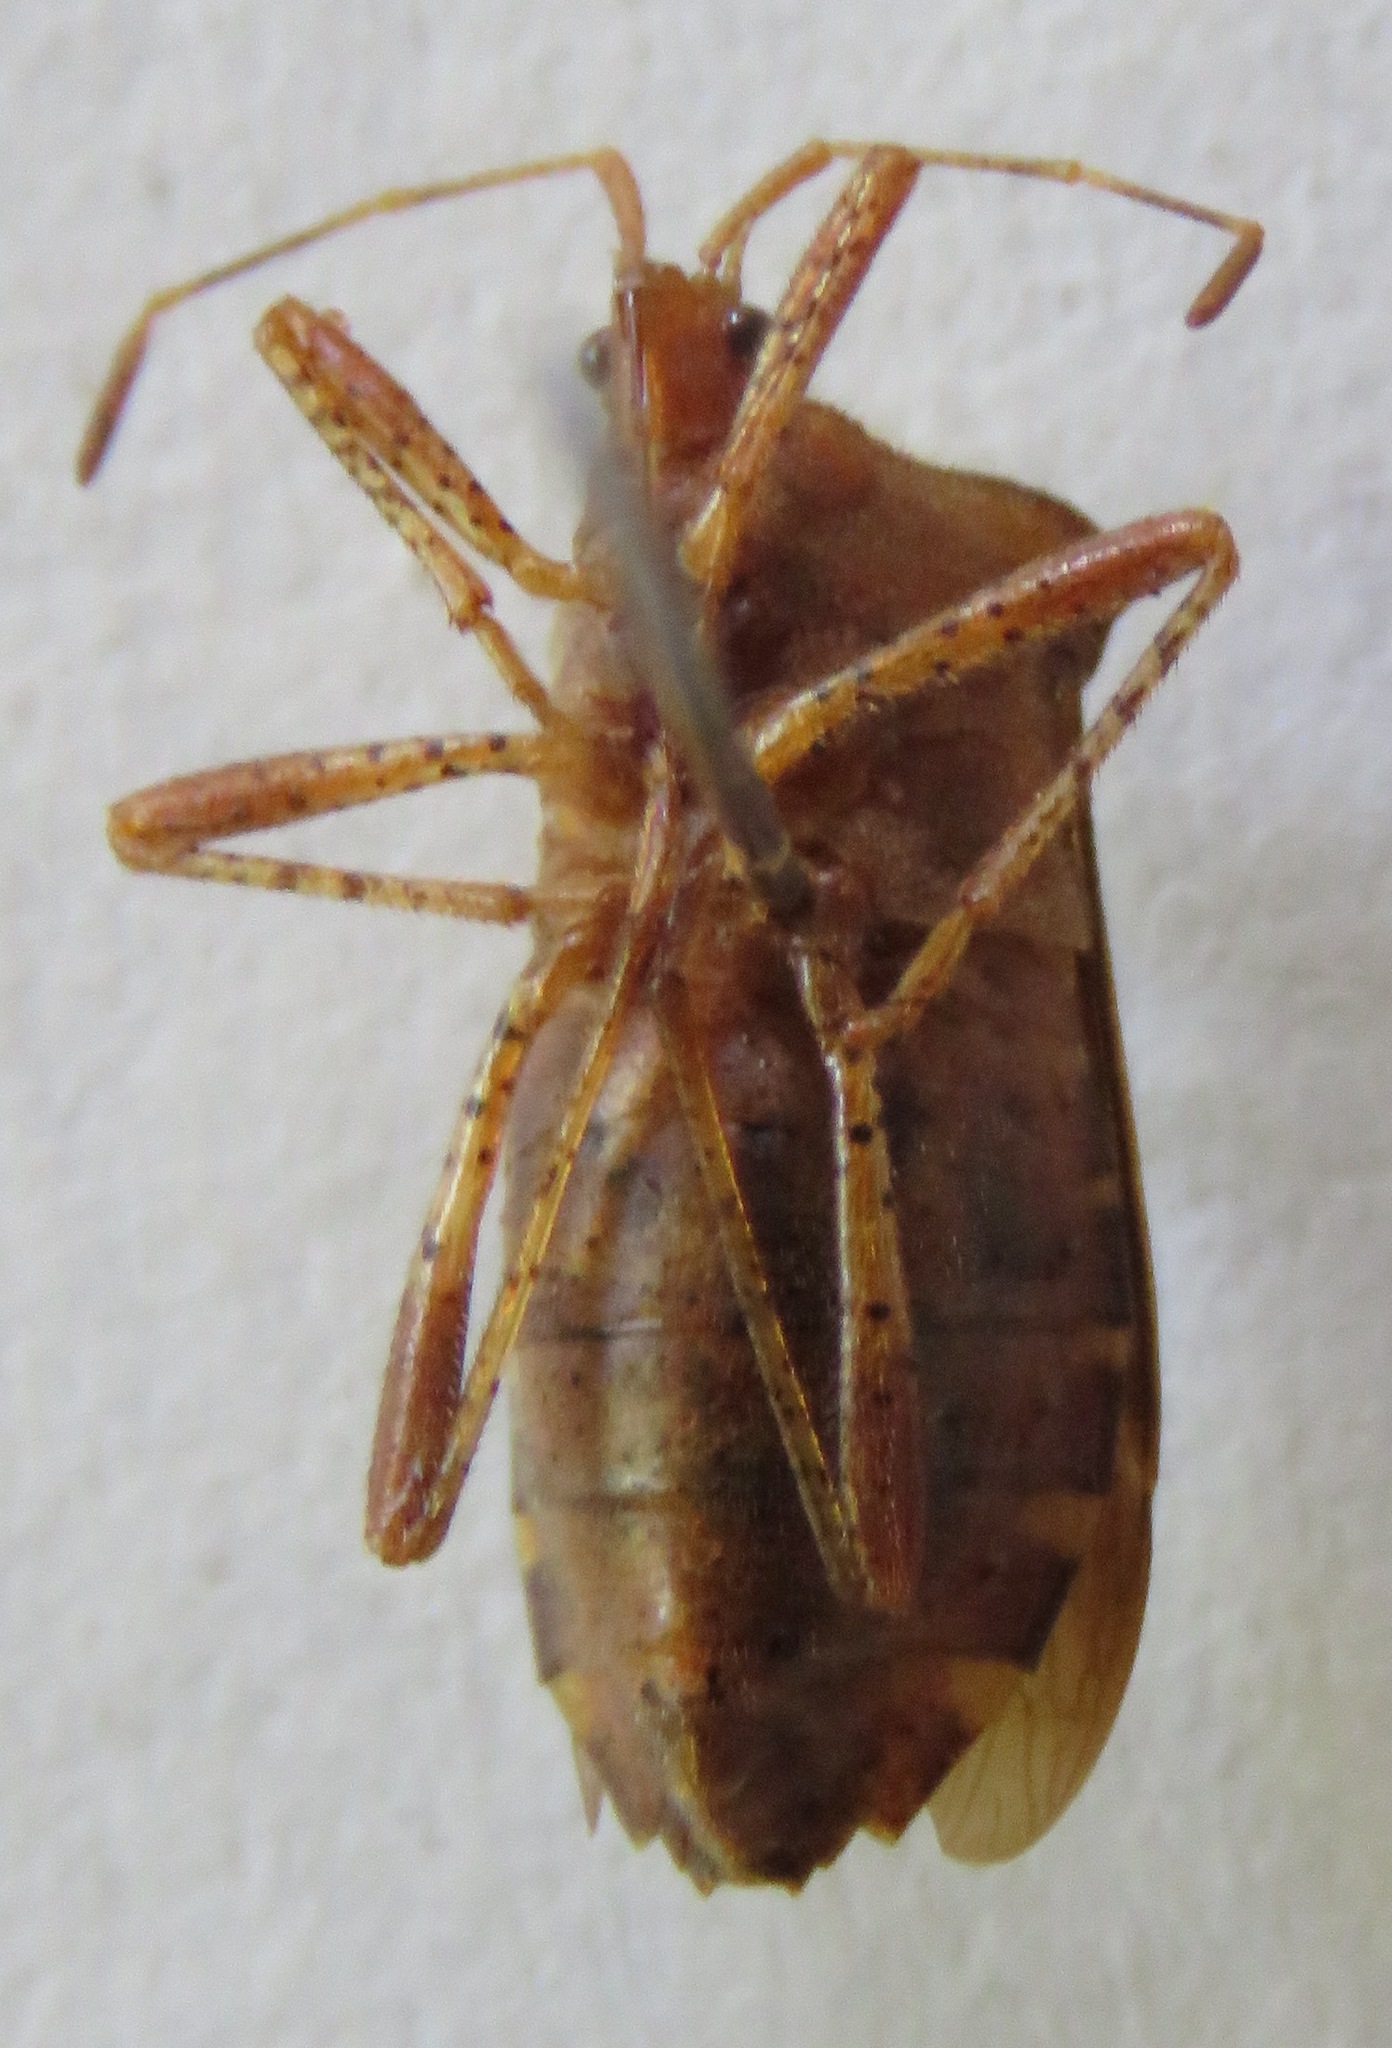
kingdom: Animalia
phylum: Arthropoda
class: Insecta
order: Hemiptera
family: Coreidae
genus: Anasa
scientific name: Anasa scorbutica
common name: Squash bug
